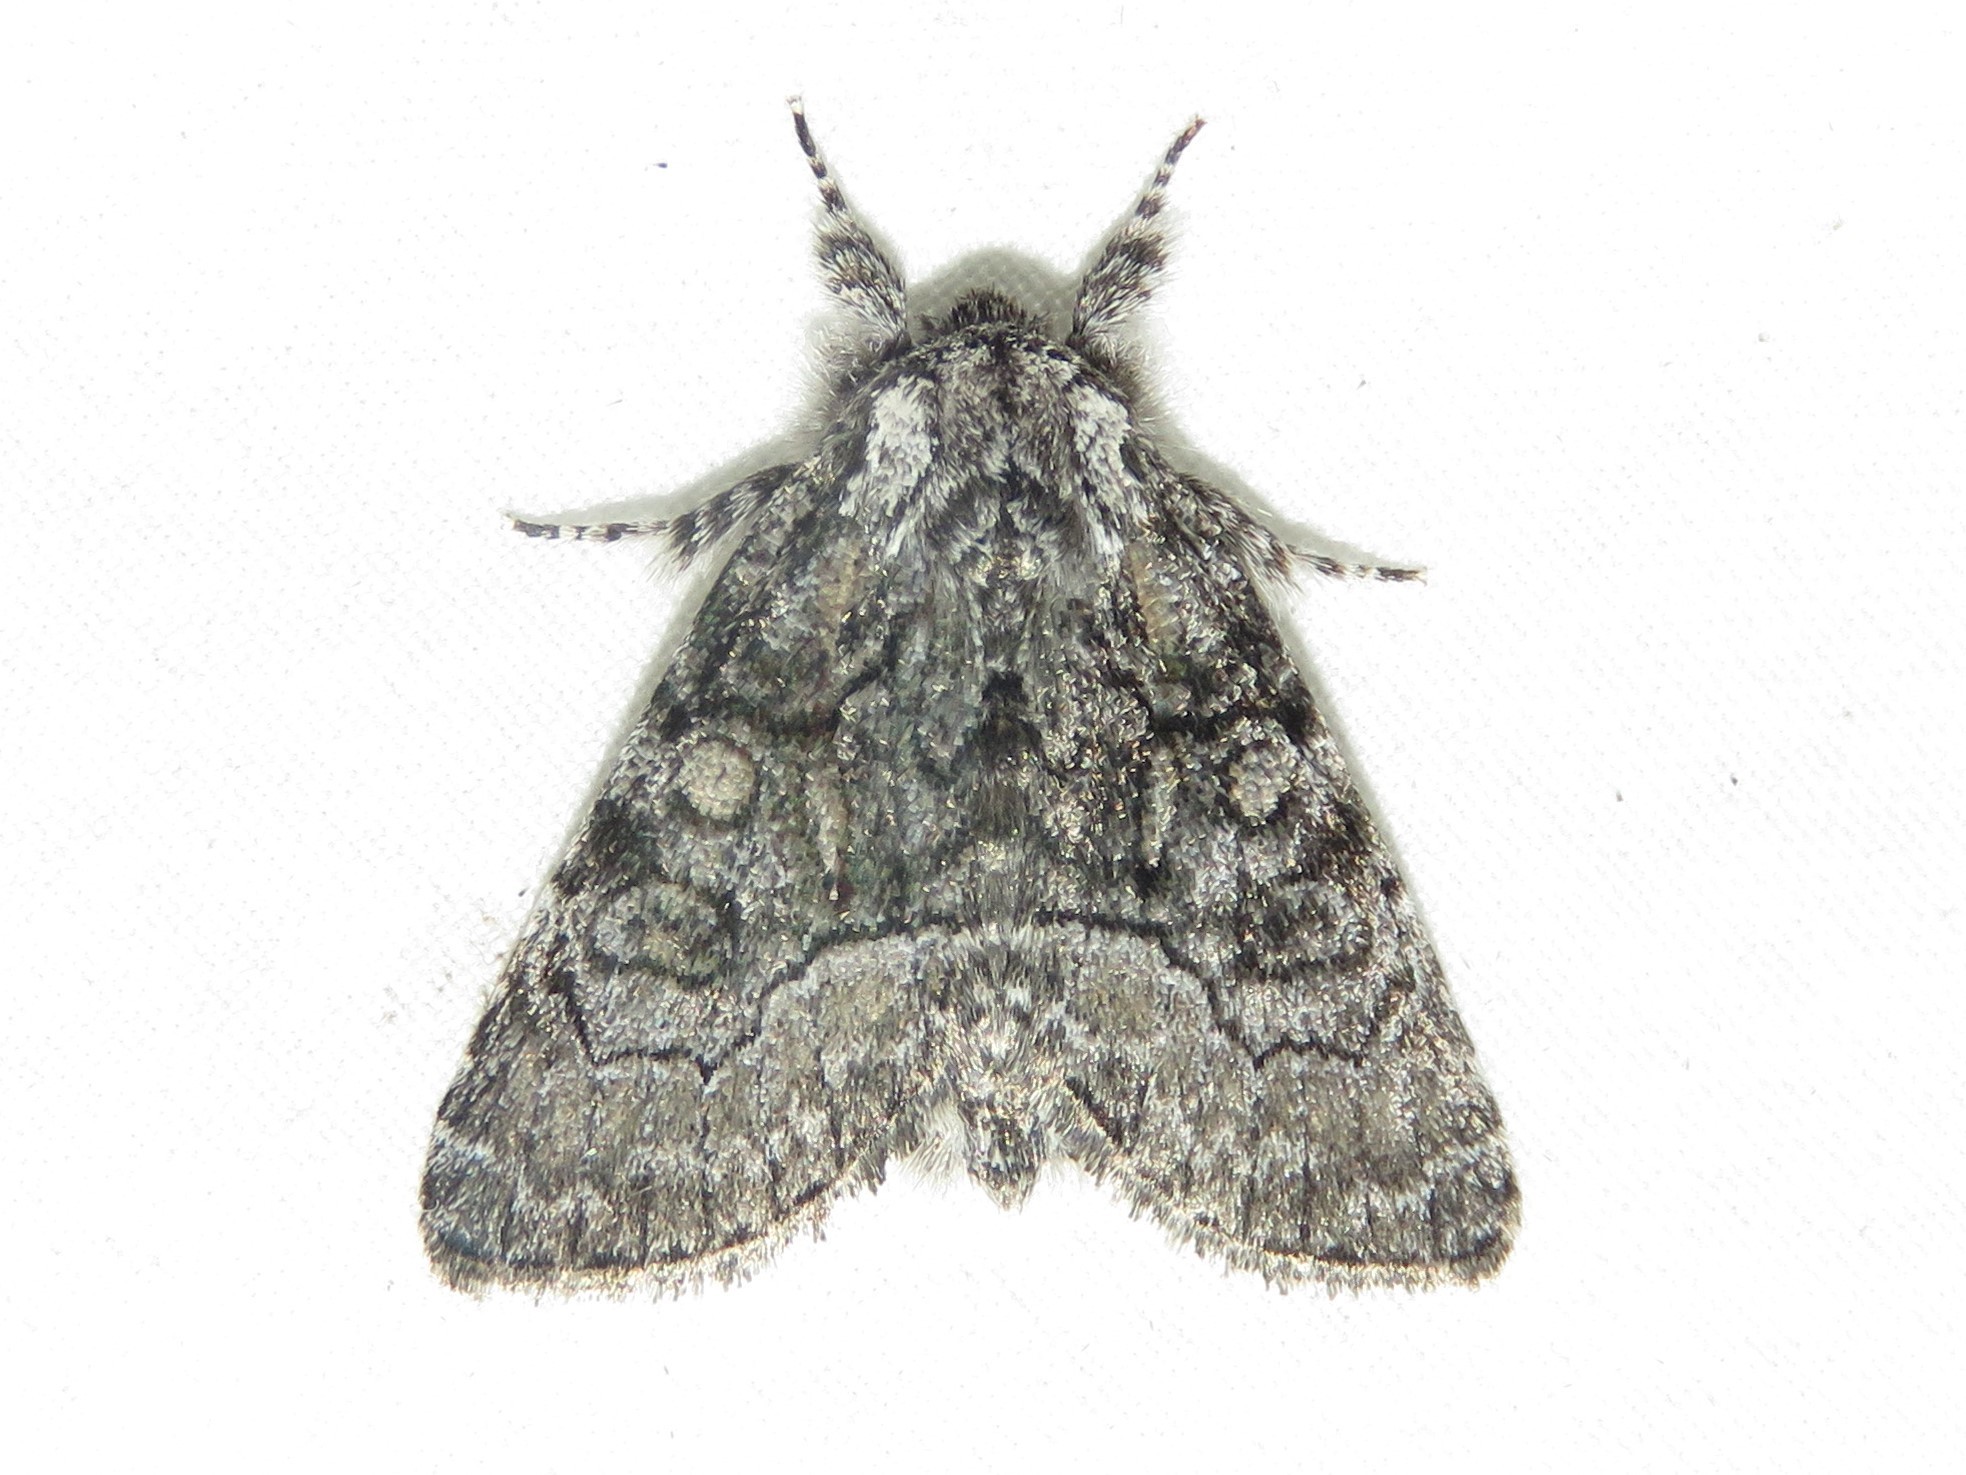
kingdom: Animalia
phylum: Arthropoda
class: Insecta
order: Lepidoptera
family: Noctuidae
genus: Raphia
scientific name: Raphia frater
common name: Brother
